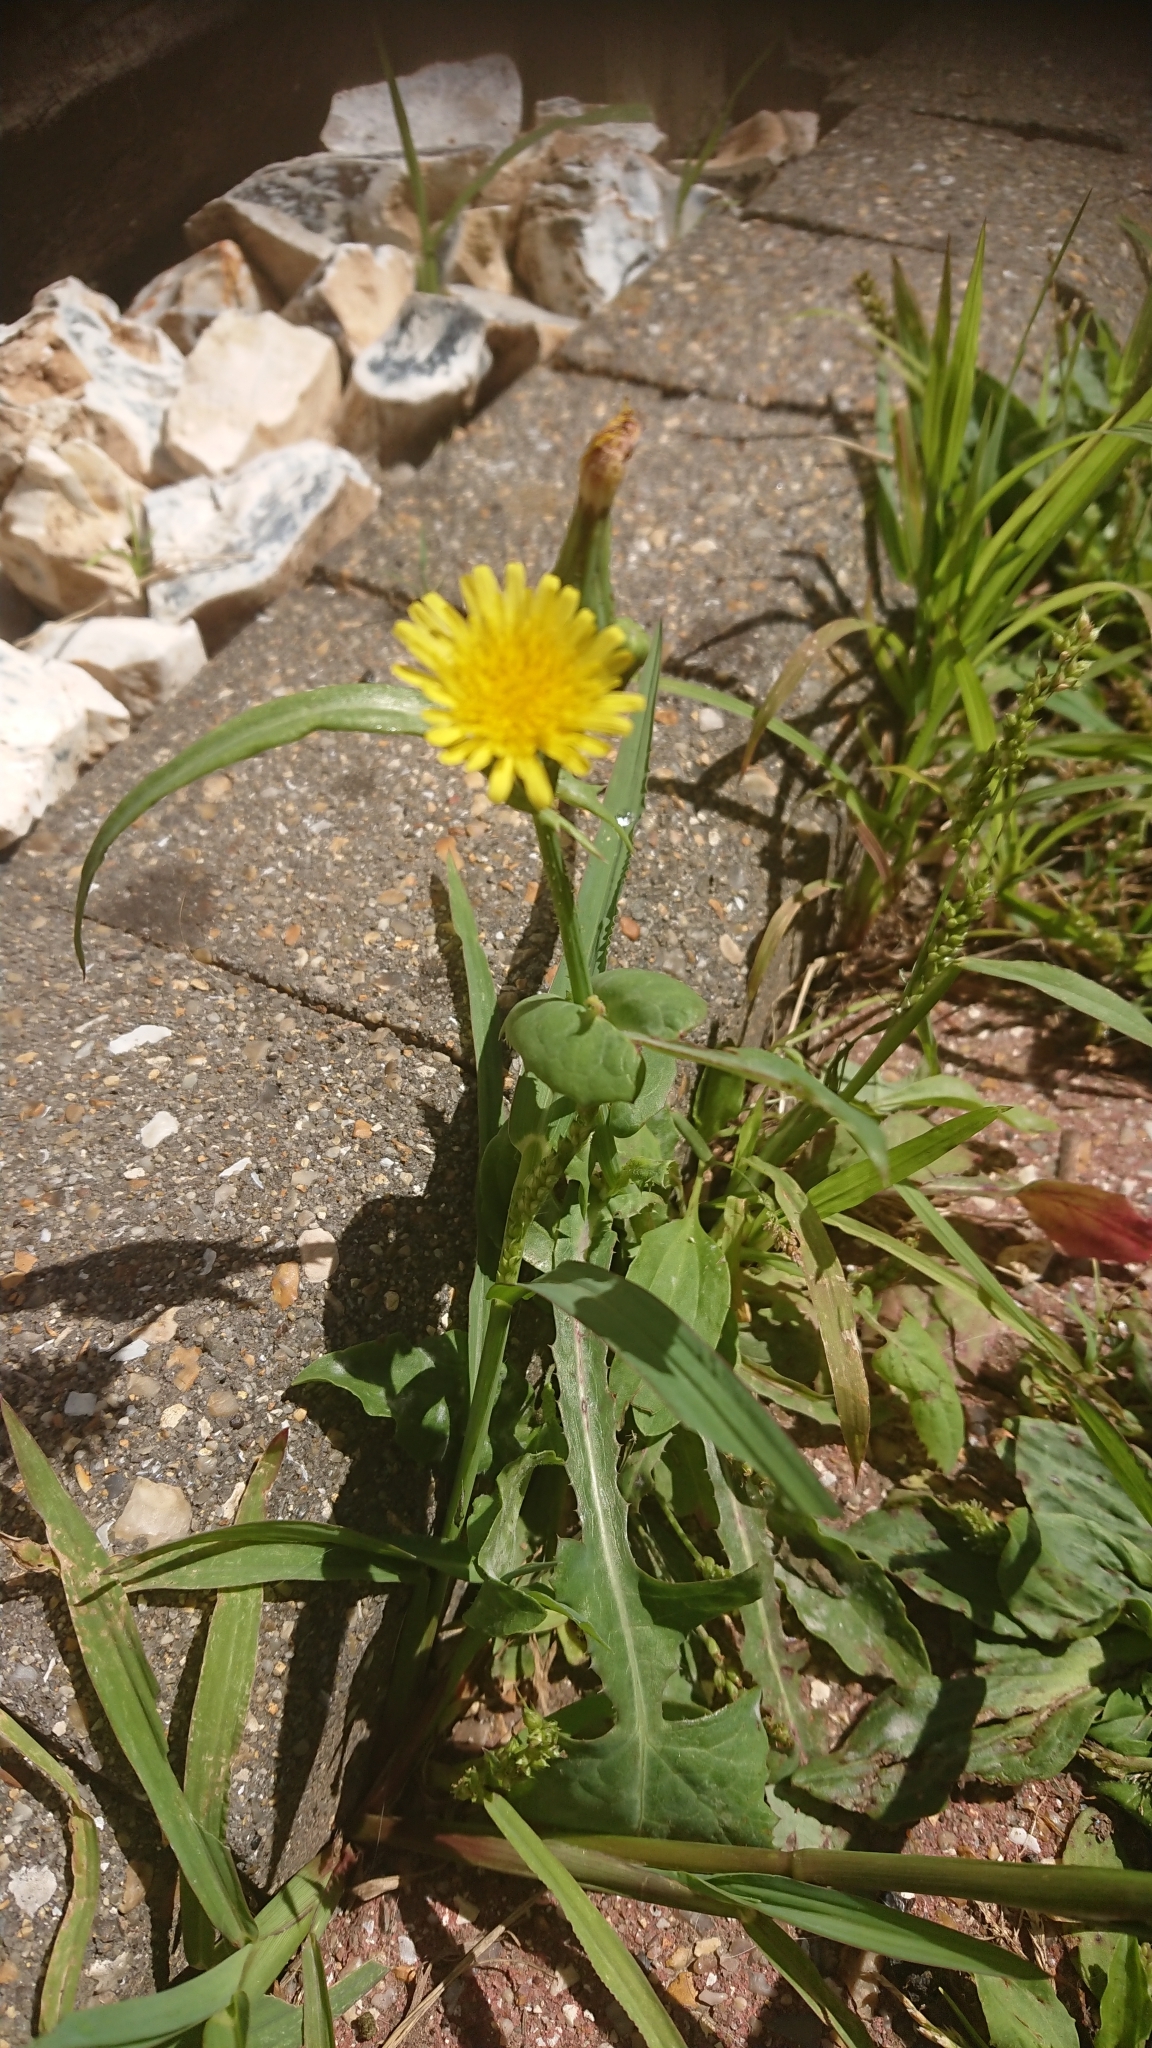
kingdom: Plantae
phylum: Tracheophyta
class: Magnoliopsida
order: Asterales
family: Asteraceae
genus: Sonchus
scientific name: Sonchus oleraceus
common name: Common sowthistle
